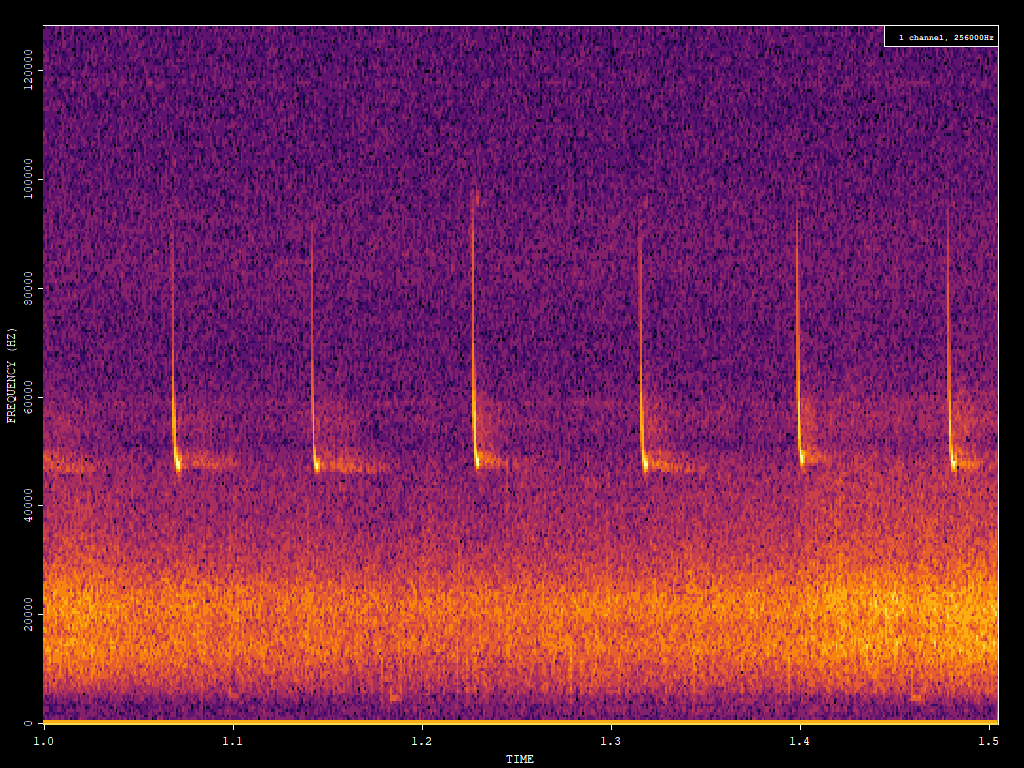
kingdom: Animalia
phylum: Chordata
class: Mammalia
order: Chiroptera
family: Vespertilionidae
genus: Pipistrellus
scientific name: Pipistrellus pipistrellus
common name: Common pipistrelle
